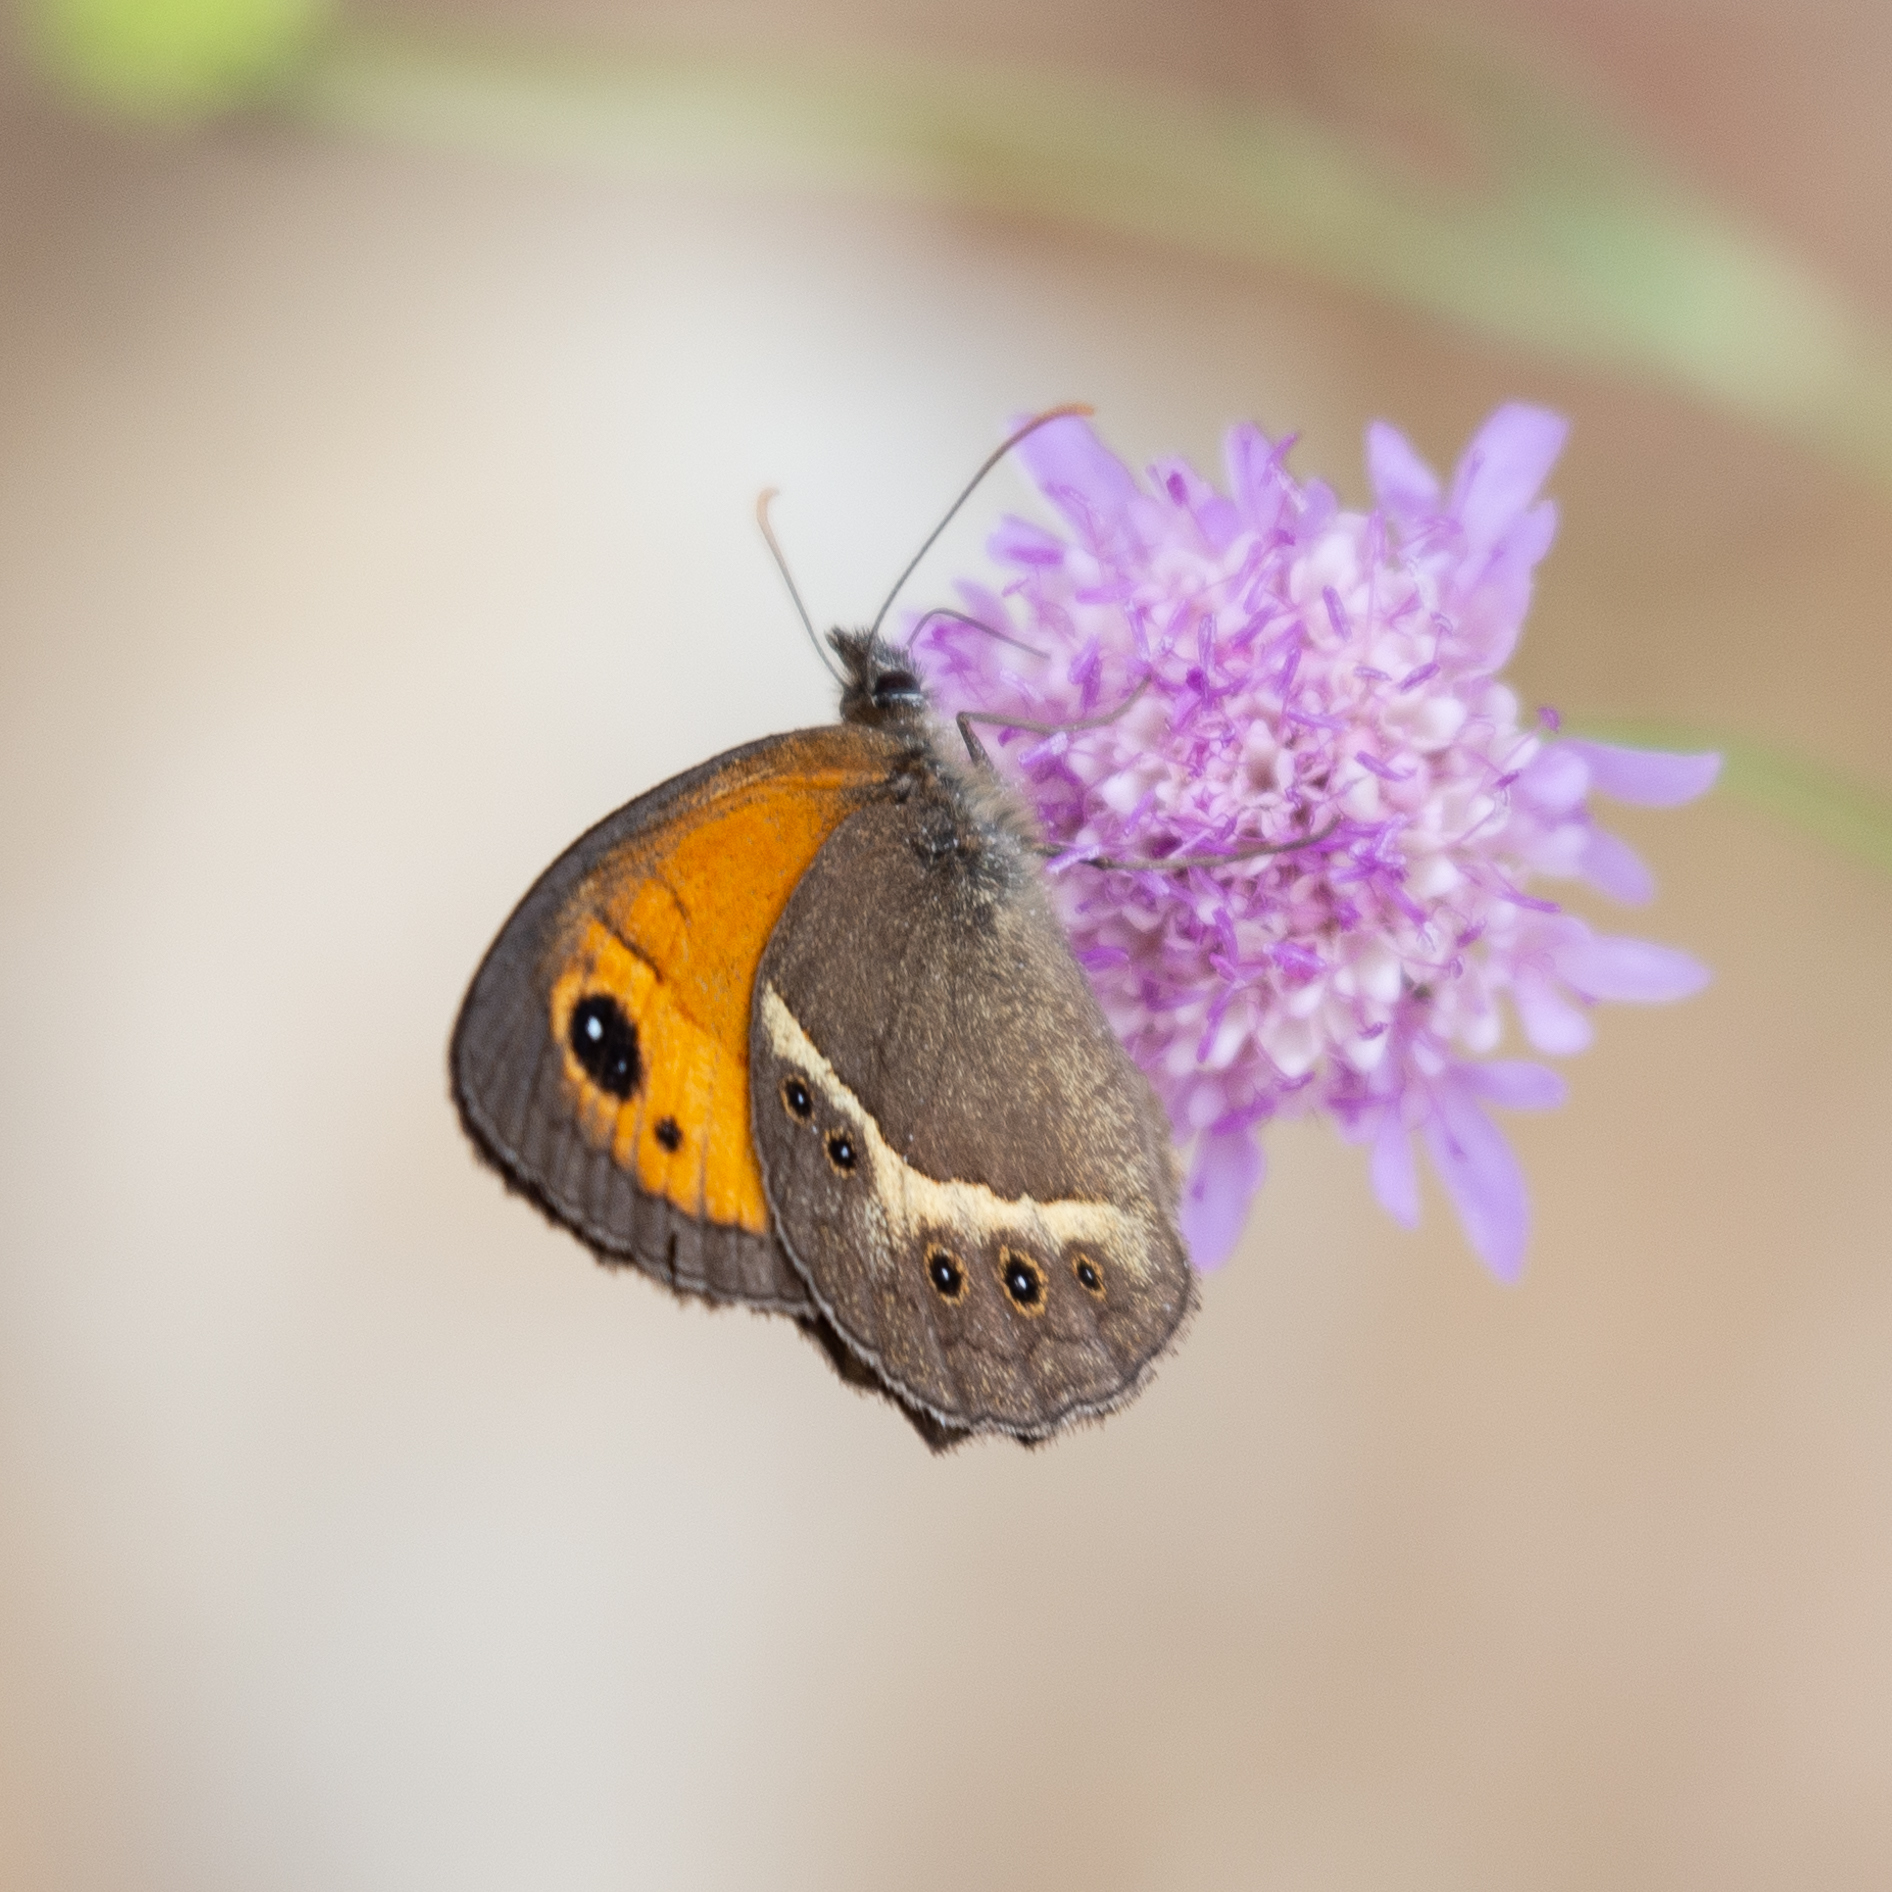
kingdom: Animalia
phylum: Arthropoda
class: Insecta
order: Lepidoptera
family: Nymphalidae
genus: Pyronia
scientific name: Pyronia bathseba
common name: Spanish gatekeeper
